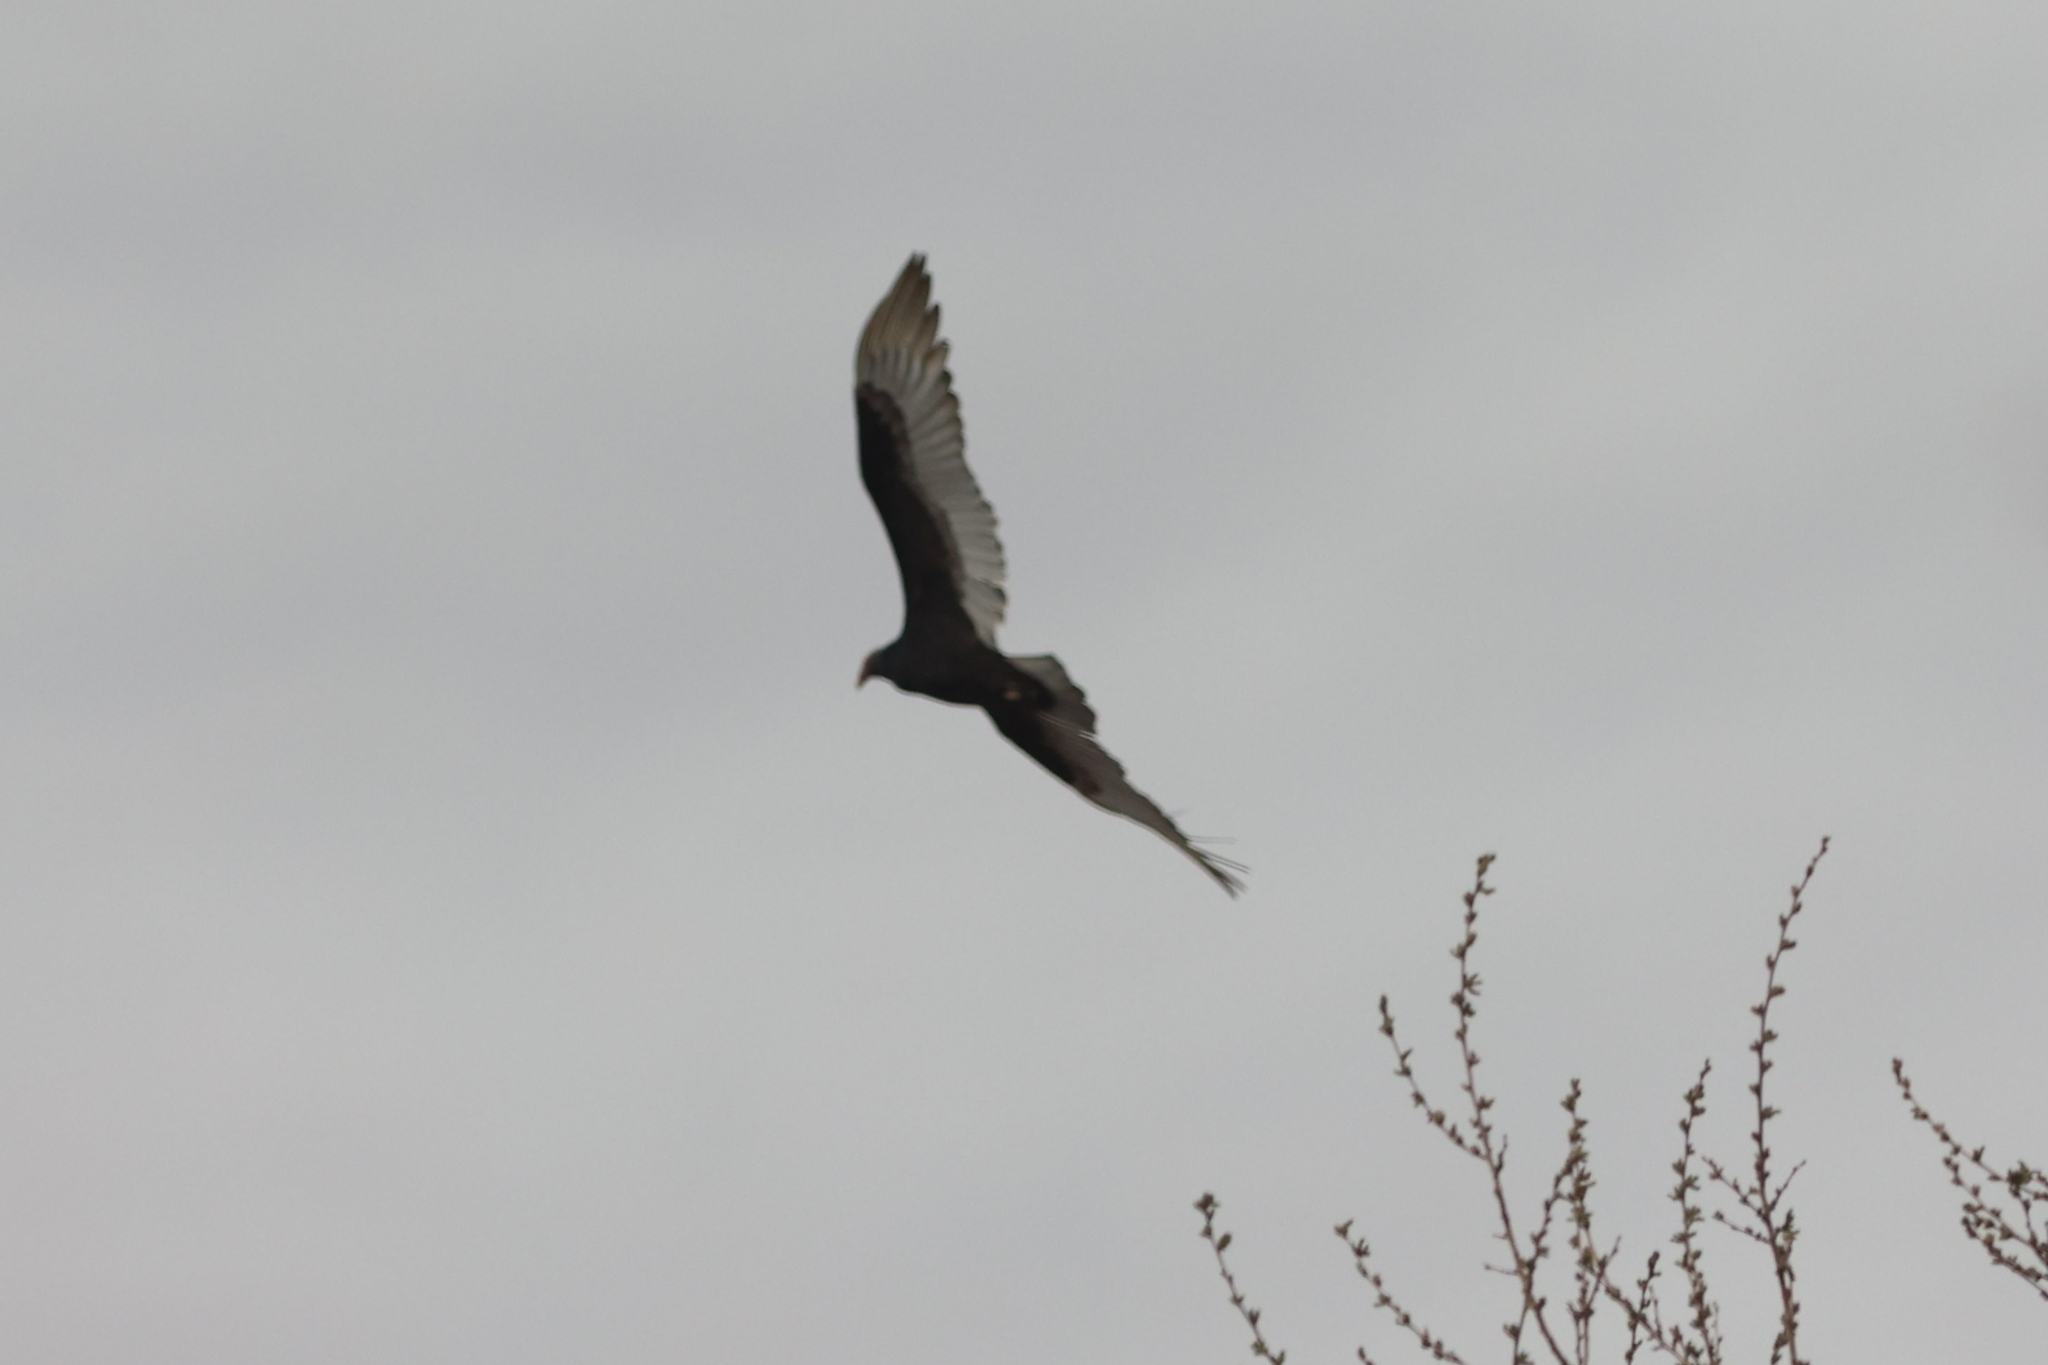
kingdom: Animalia
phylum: Chordata
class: Aves
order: Accipitriformes
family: Cathartidae
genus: Cathartes
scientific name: Cathartes aura
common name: Turkey vulture
